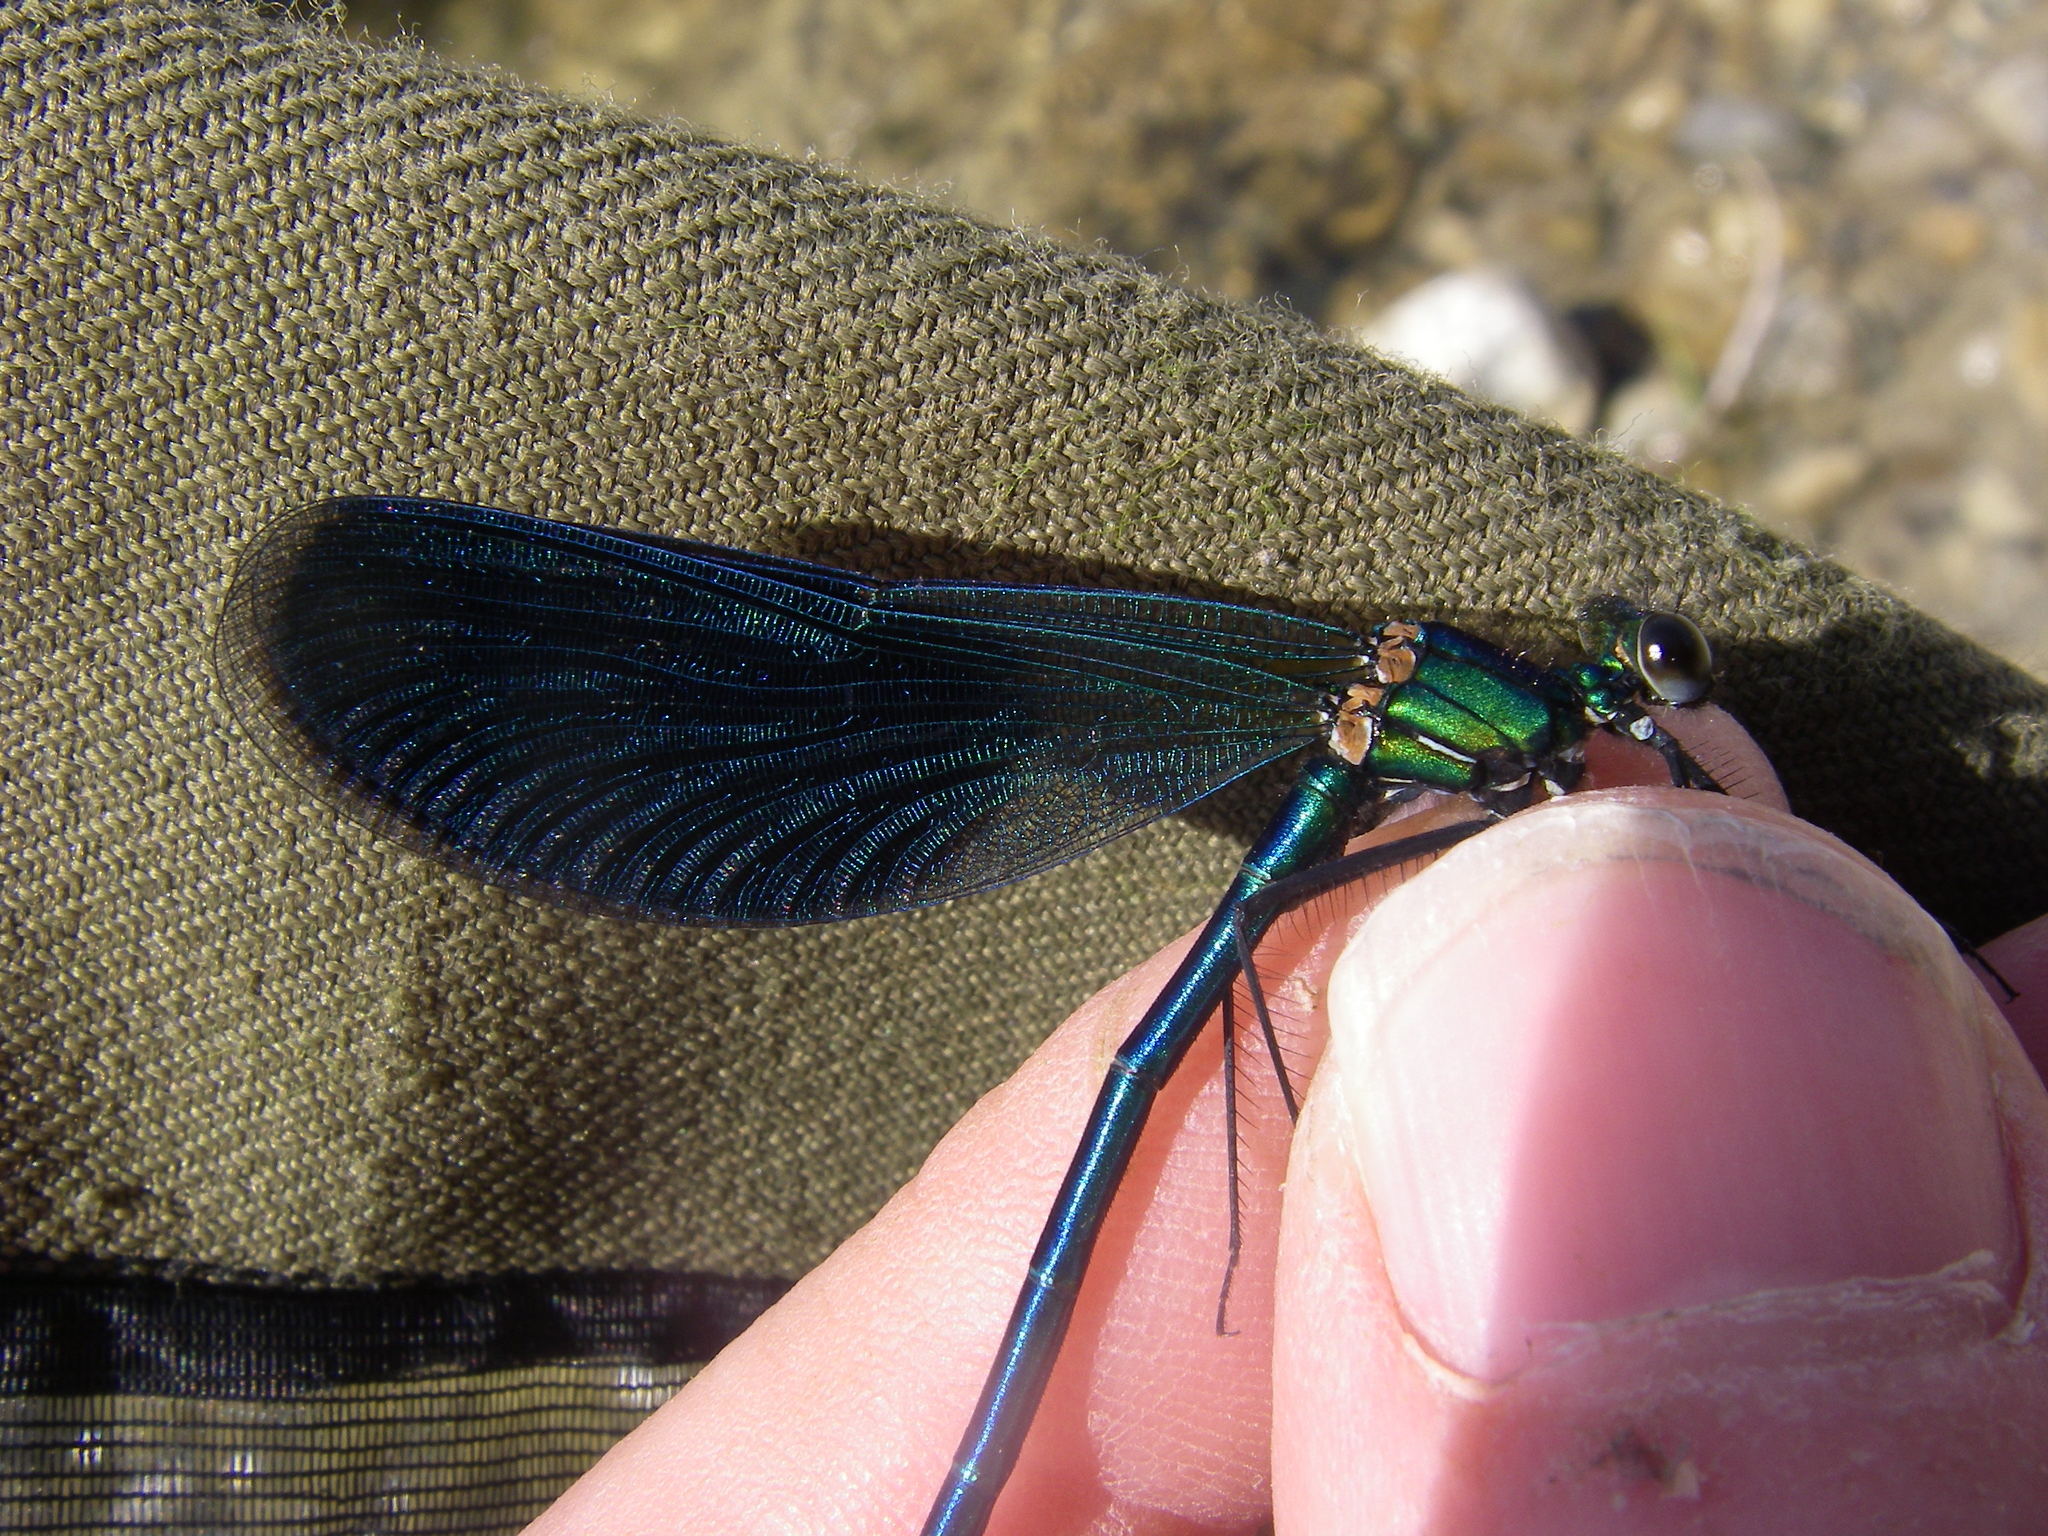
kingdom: Animalia
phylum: Arthropoda
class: Insecta
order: Odonata
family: Calopterygidae
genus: Calopteryx
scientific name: Calopteryx splendens
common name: Banded demoiselle
